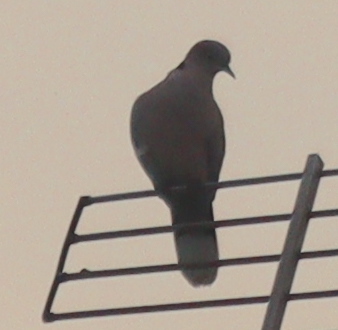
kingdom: Animalia
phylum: Chordata
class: Aves
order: Columbiformes
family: Columbidae
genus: Streptopelia
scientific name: Streptopelia decaocto
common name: Eurasian collared dove
